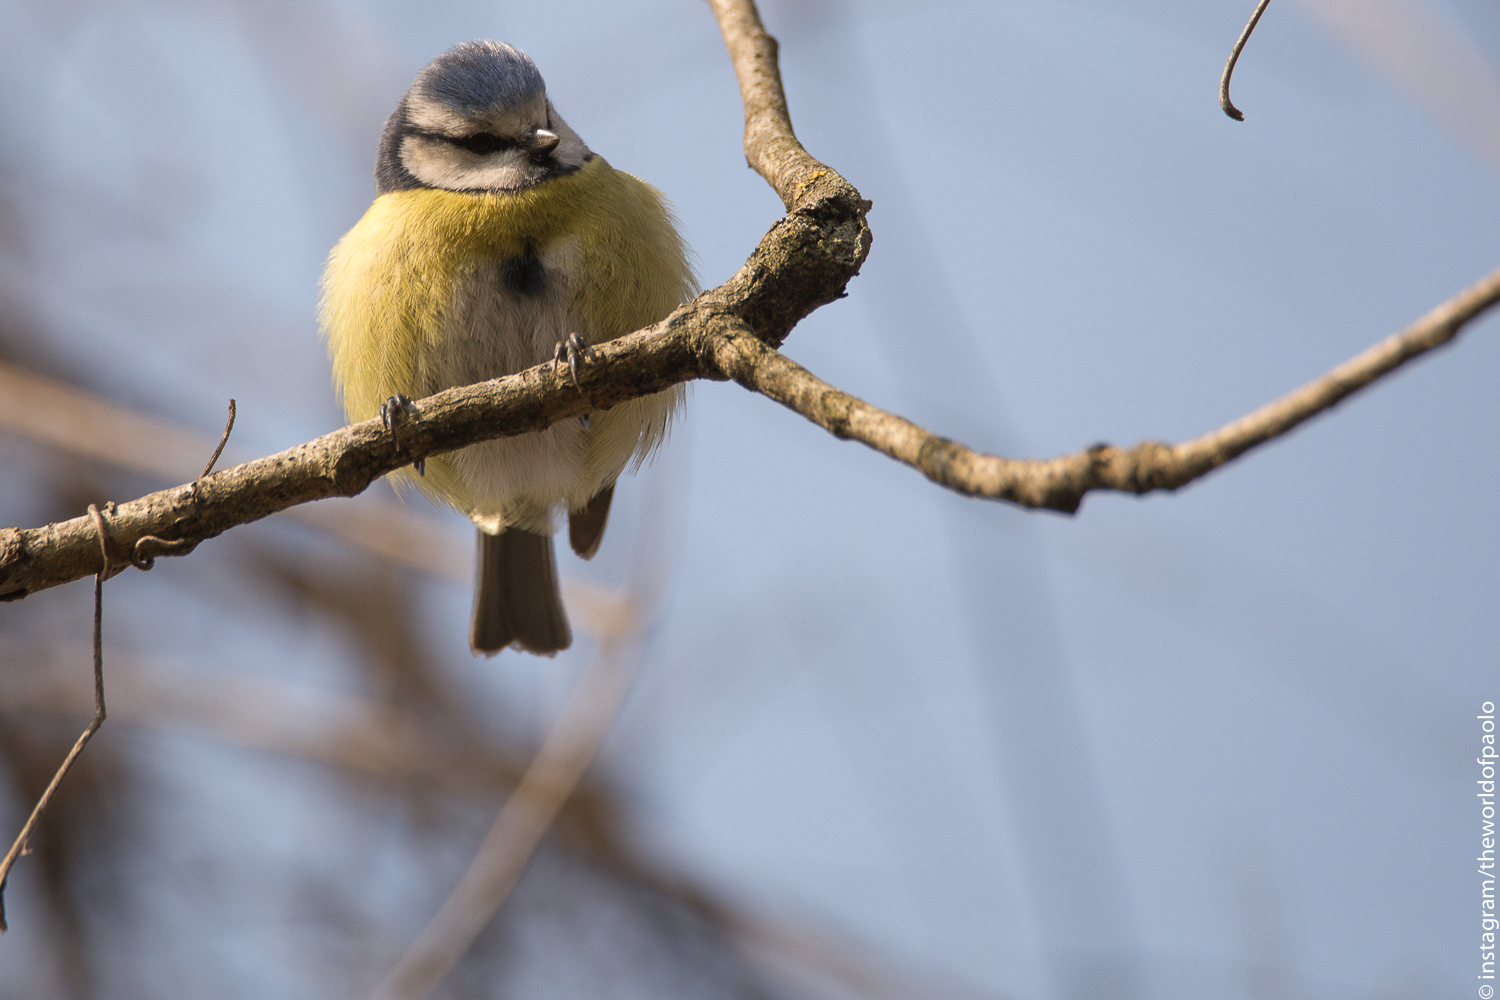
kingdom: Animalia
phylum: Chordata
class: Aves
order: Passeriformes
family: Paridae
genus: Cyanistes
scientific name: Cyanistes caeruleus
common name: Eurasian blue tit
